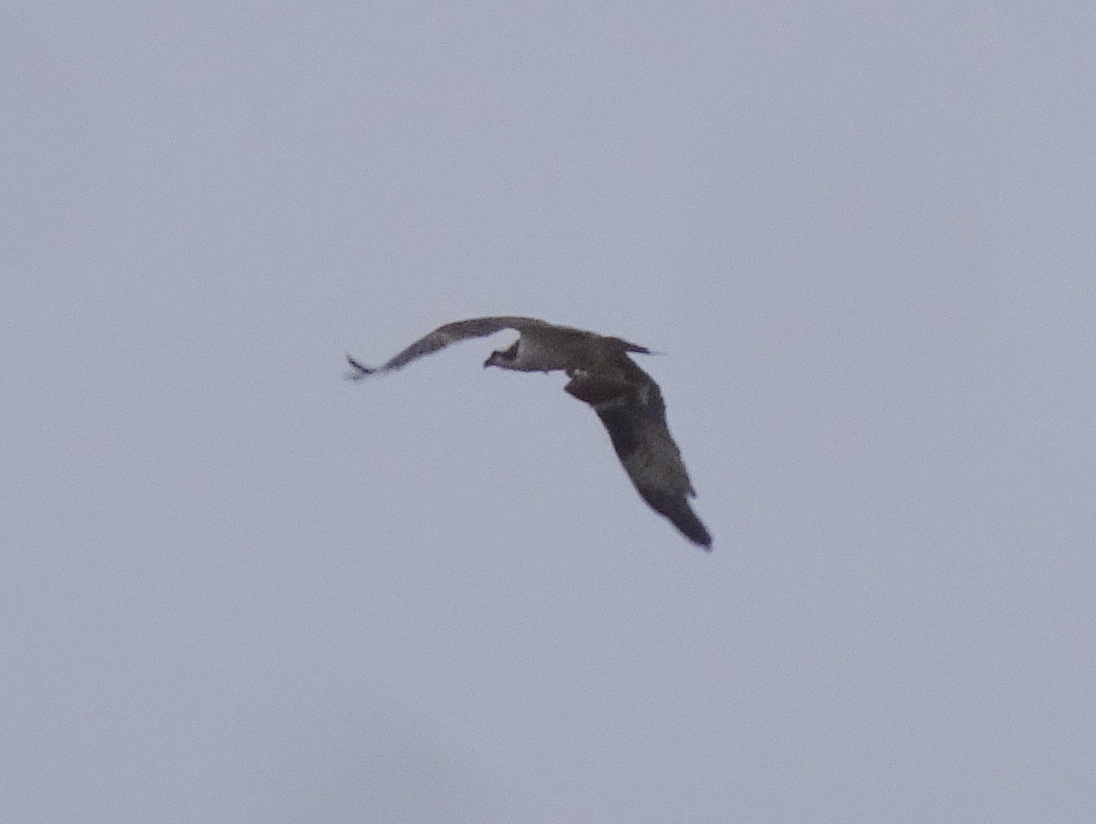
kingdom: Animalia
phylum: Chordata
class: Aves
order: Accipitriformes
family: Pandionidae
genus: Pandion
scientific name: Pandion haliaetus
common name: Osprey
